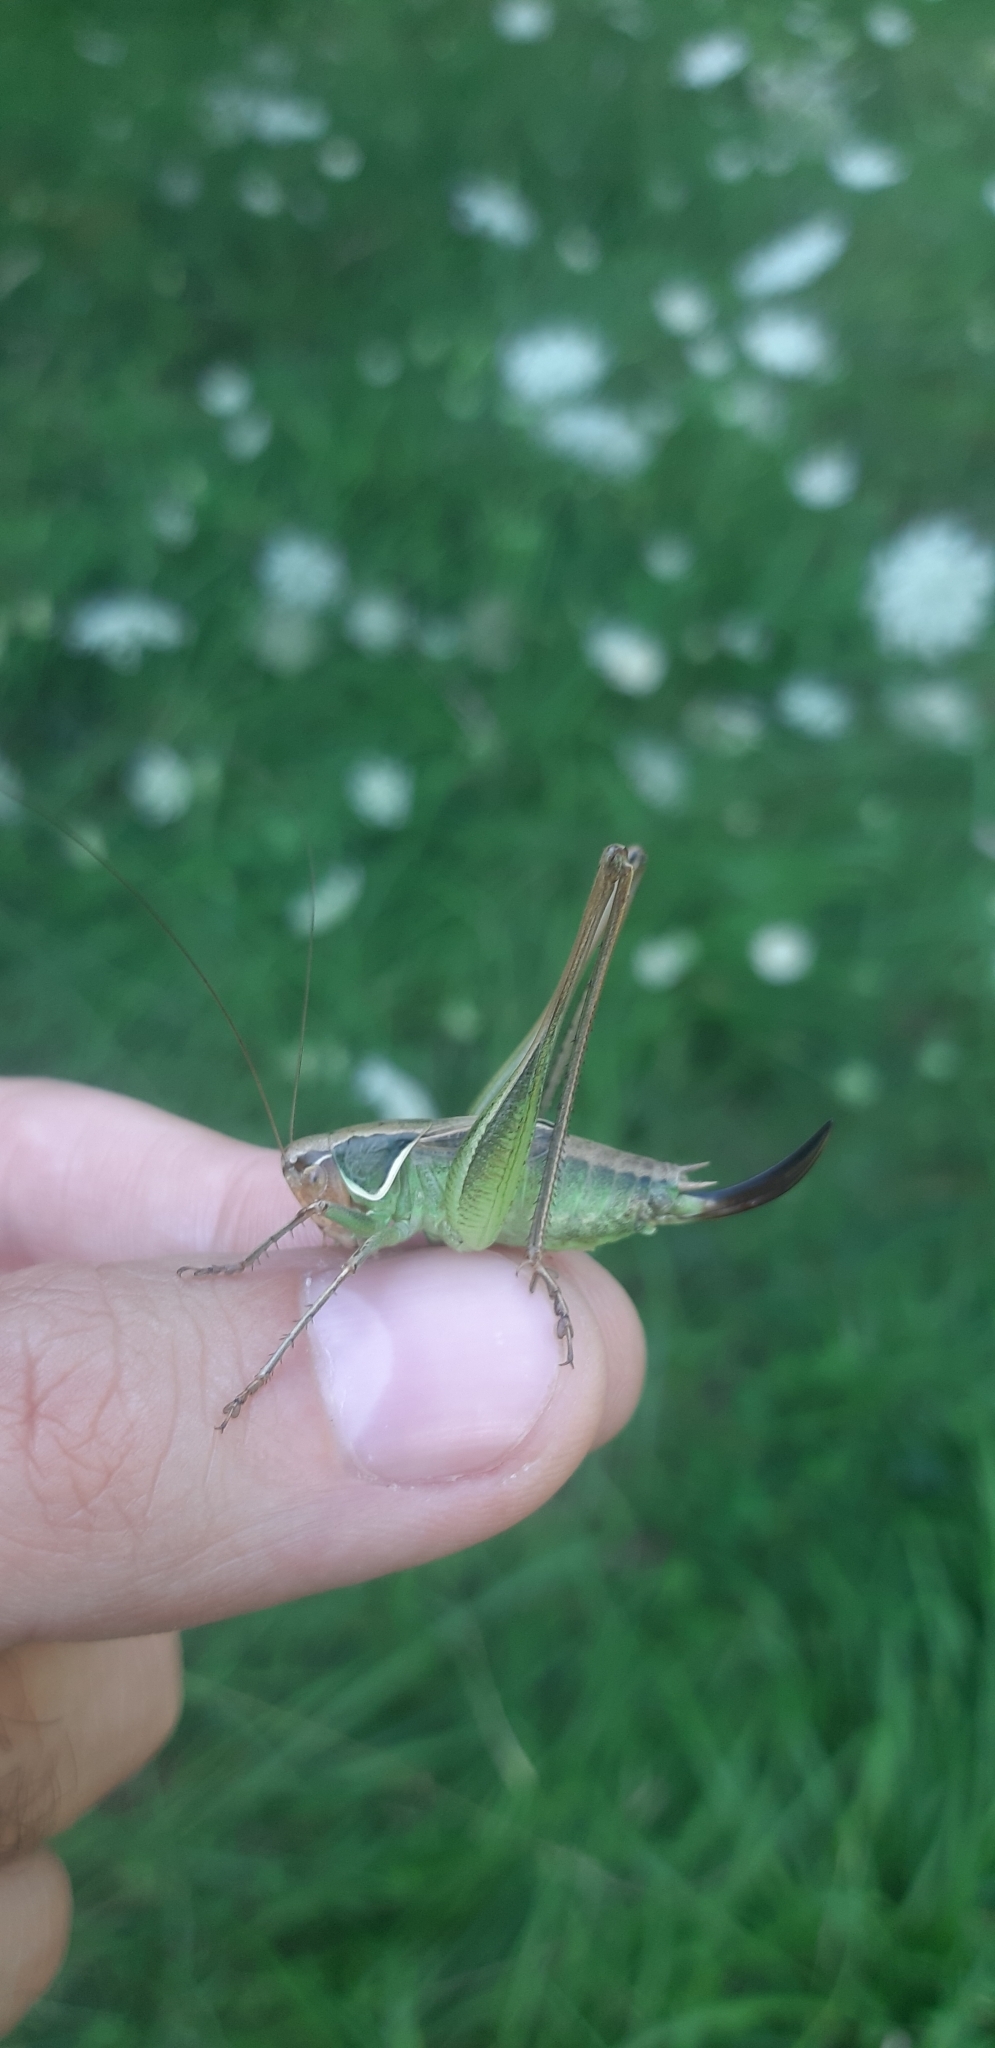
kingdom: Animalia
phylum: Arthropoda
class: Insecta
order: Orthoptera
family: Tettigoniidae
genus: Sepiana
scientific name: Sepiana sepium
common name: Sepia bush-cricket
